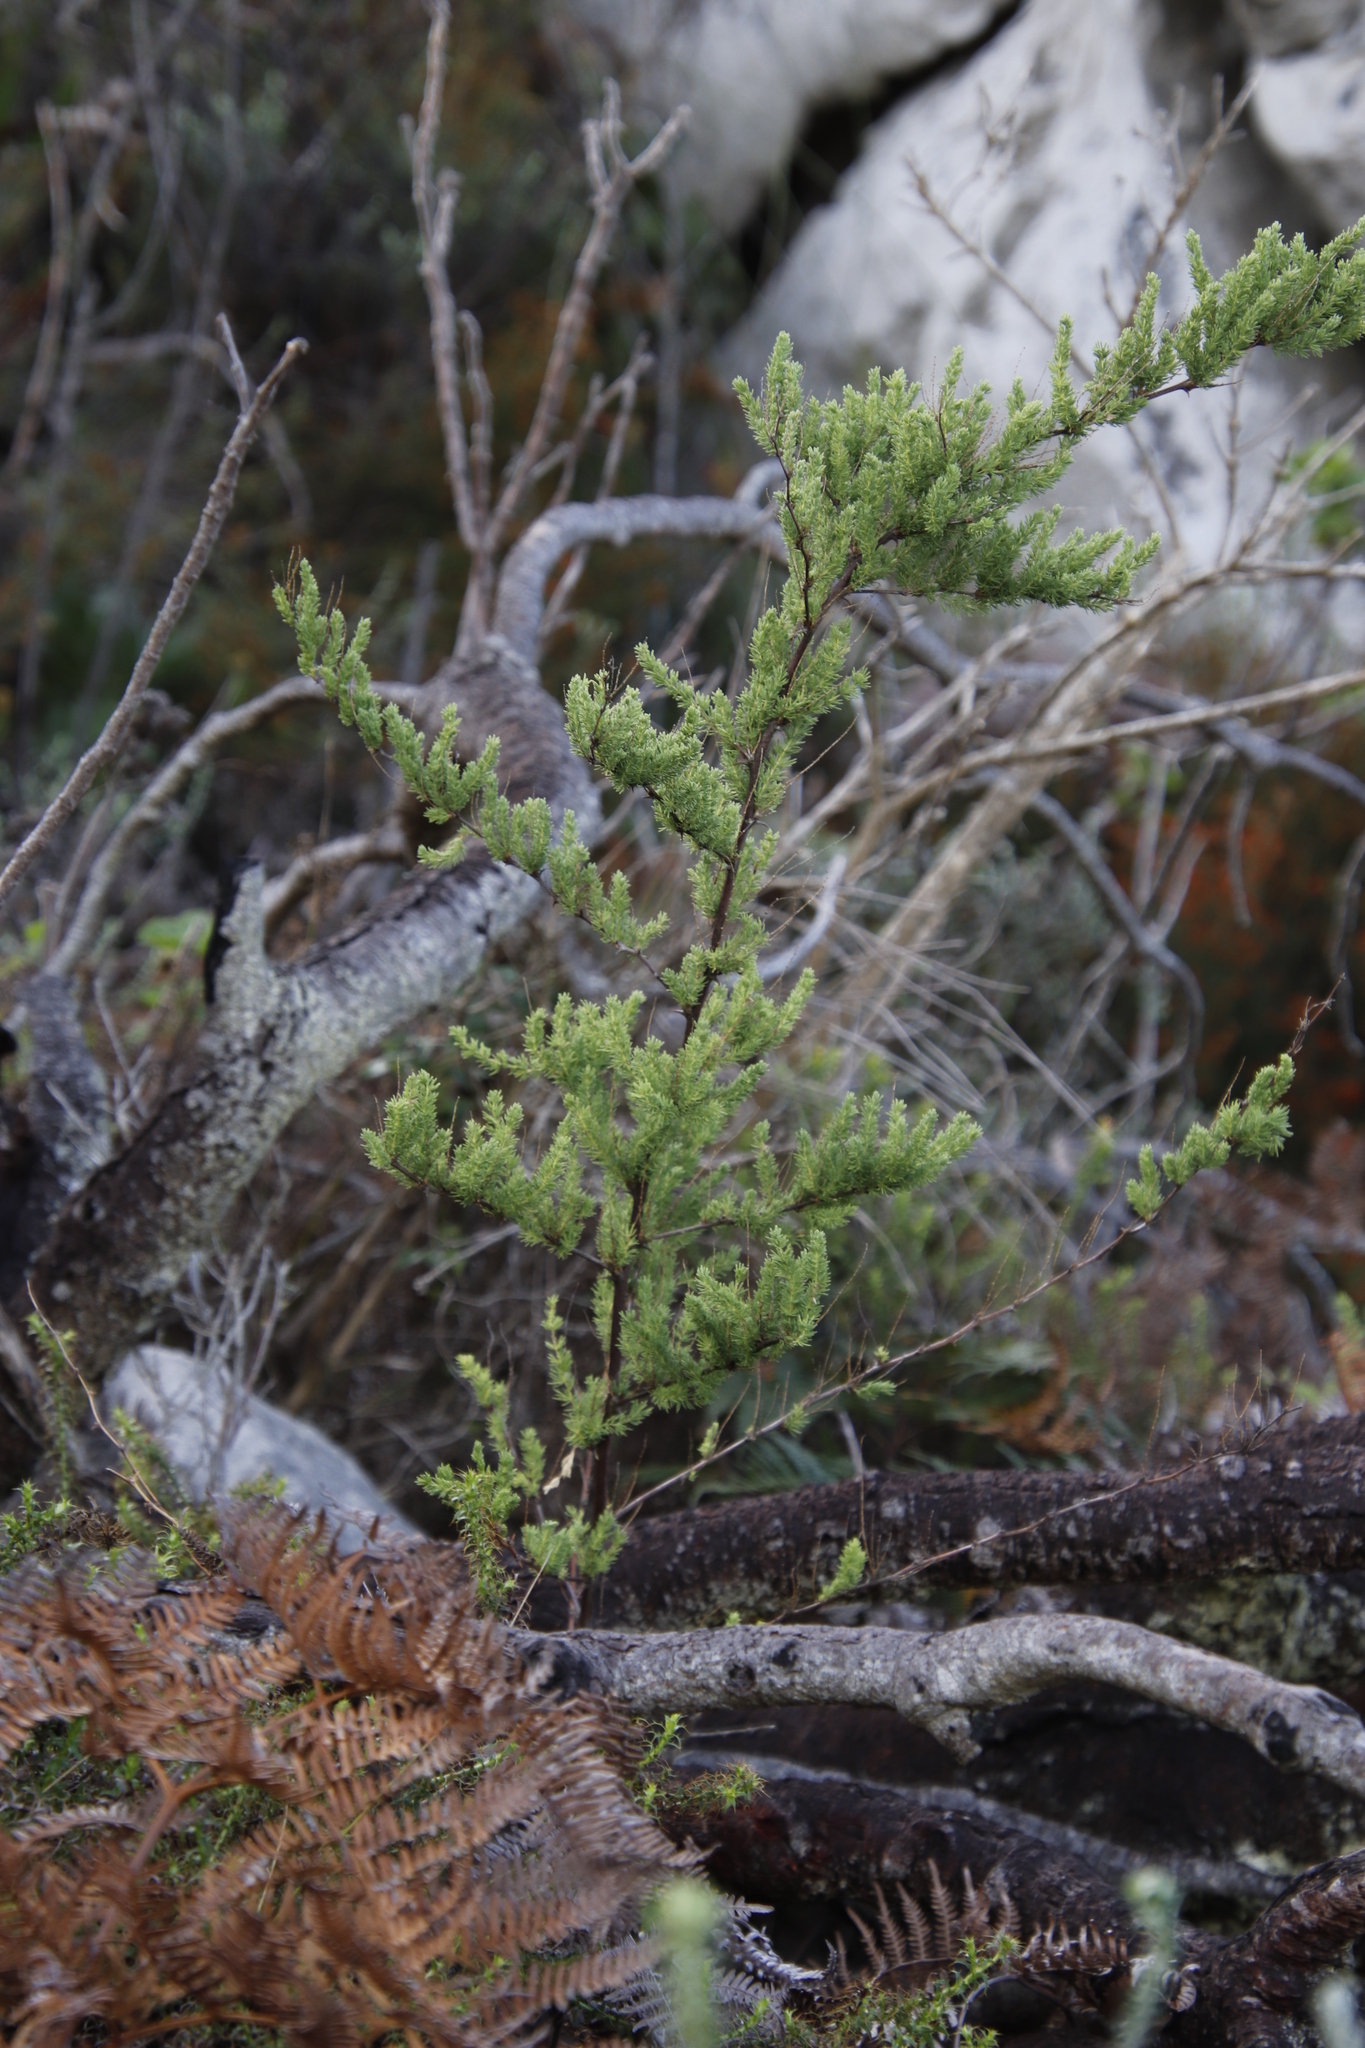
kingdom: Plantae
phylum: Tracheophyta
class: Liliopsida
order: Asparagales
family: Asparagaceae
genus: Asparagus
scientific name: Asparagus rubicundus
